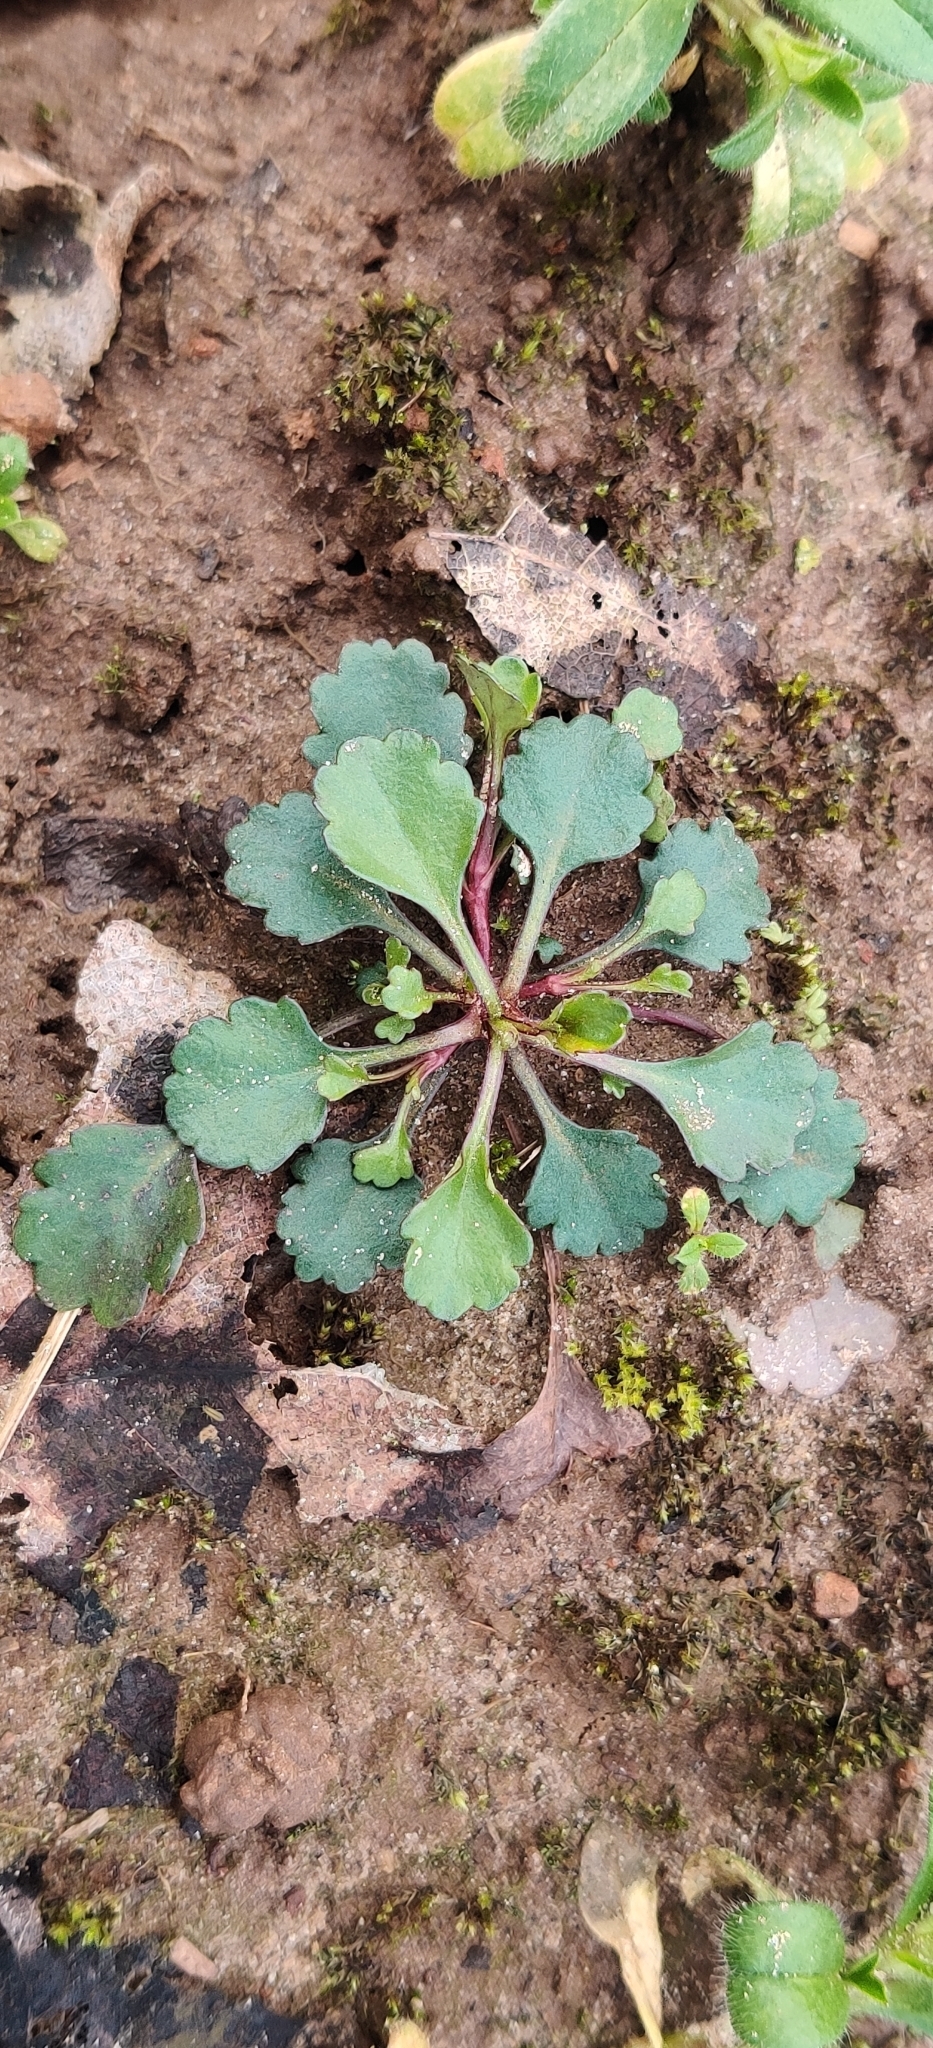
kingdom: Plantae
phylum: Tracheophyta
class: Magnoliopsida
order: Asterales
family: Asteraceae
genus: Leucanthemum
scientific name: Leucanthemum vulgare
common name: Oxeye daisy
